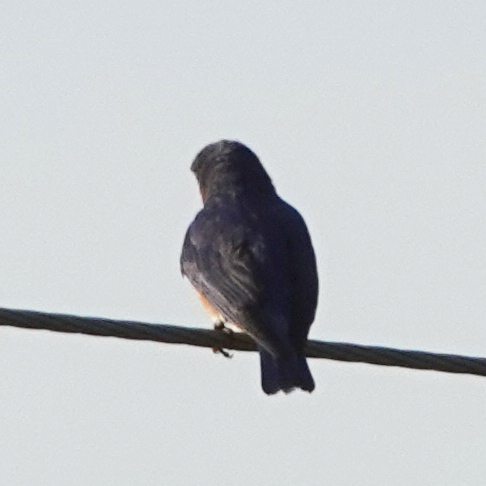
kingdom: Animalia
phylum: Chordata
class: Aves
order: Passeriformes
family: Turdidae
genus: Sialia
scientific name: Sialia sialis
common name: Eastern bluebird
